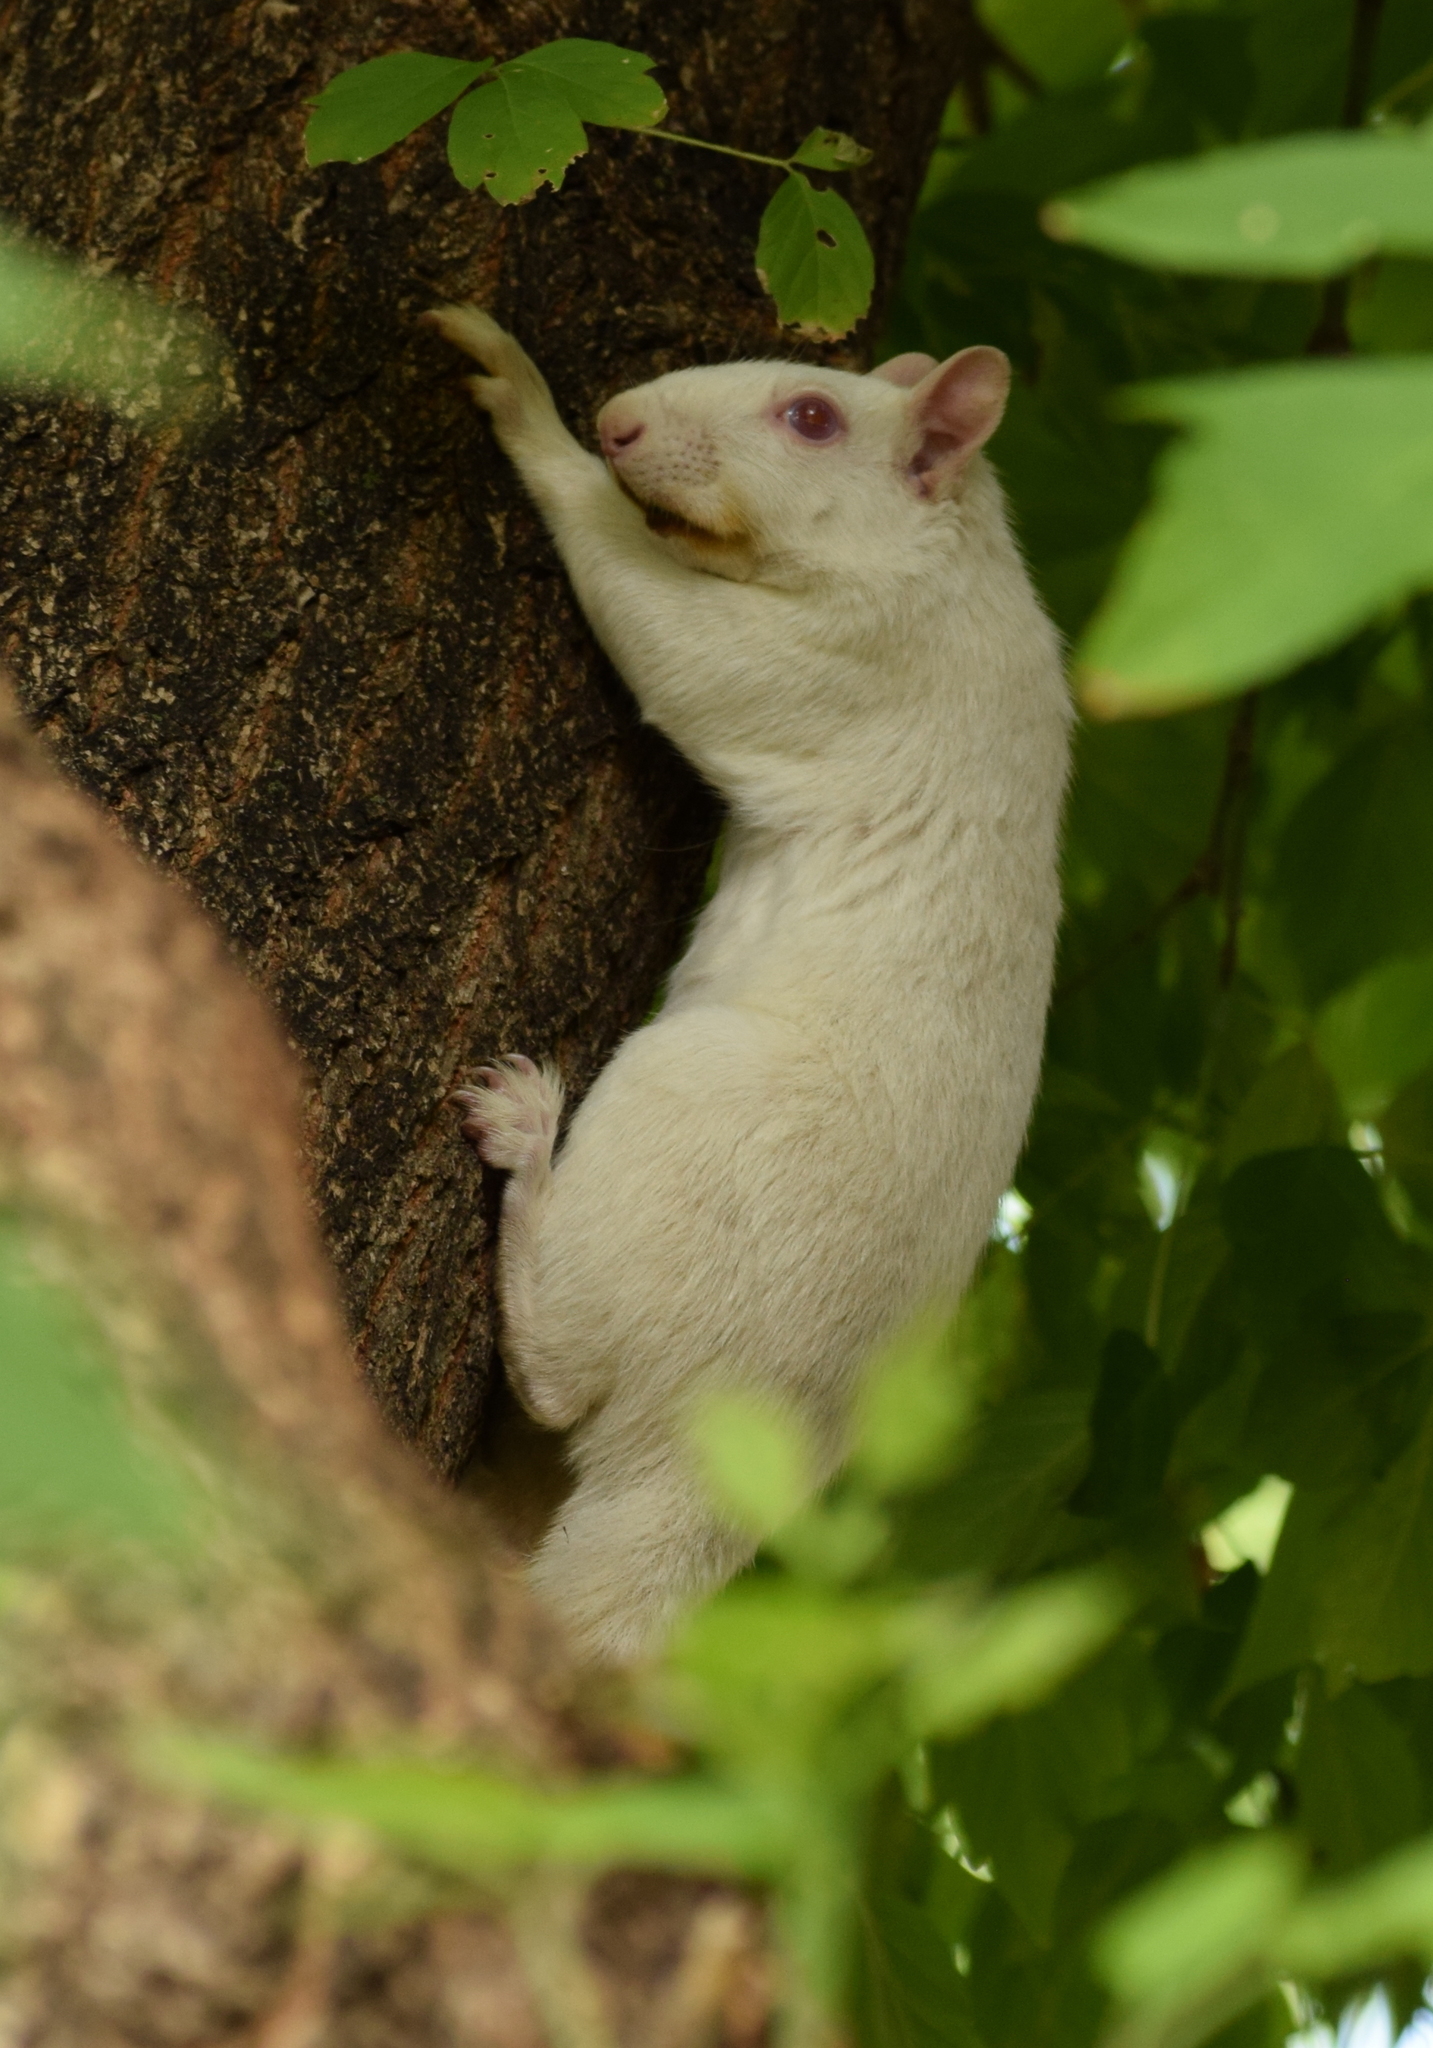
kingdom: Animalia
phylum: Chordata
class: Mammalia
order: Rodentia
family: Sciuridae
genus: Sciurus
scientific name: Sciurus carolinensis
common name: Eastern gray squirrel
